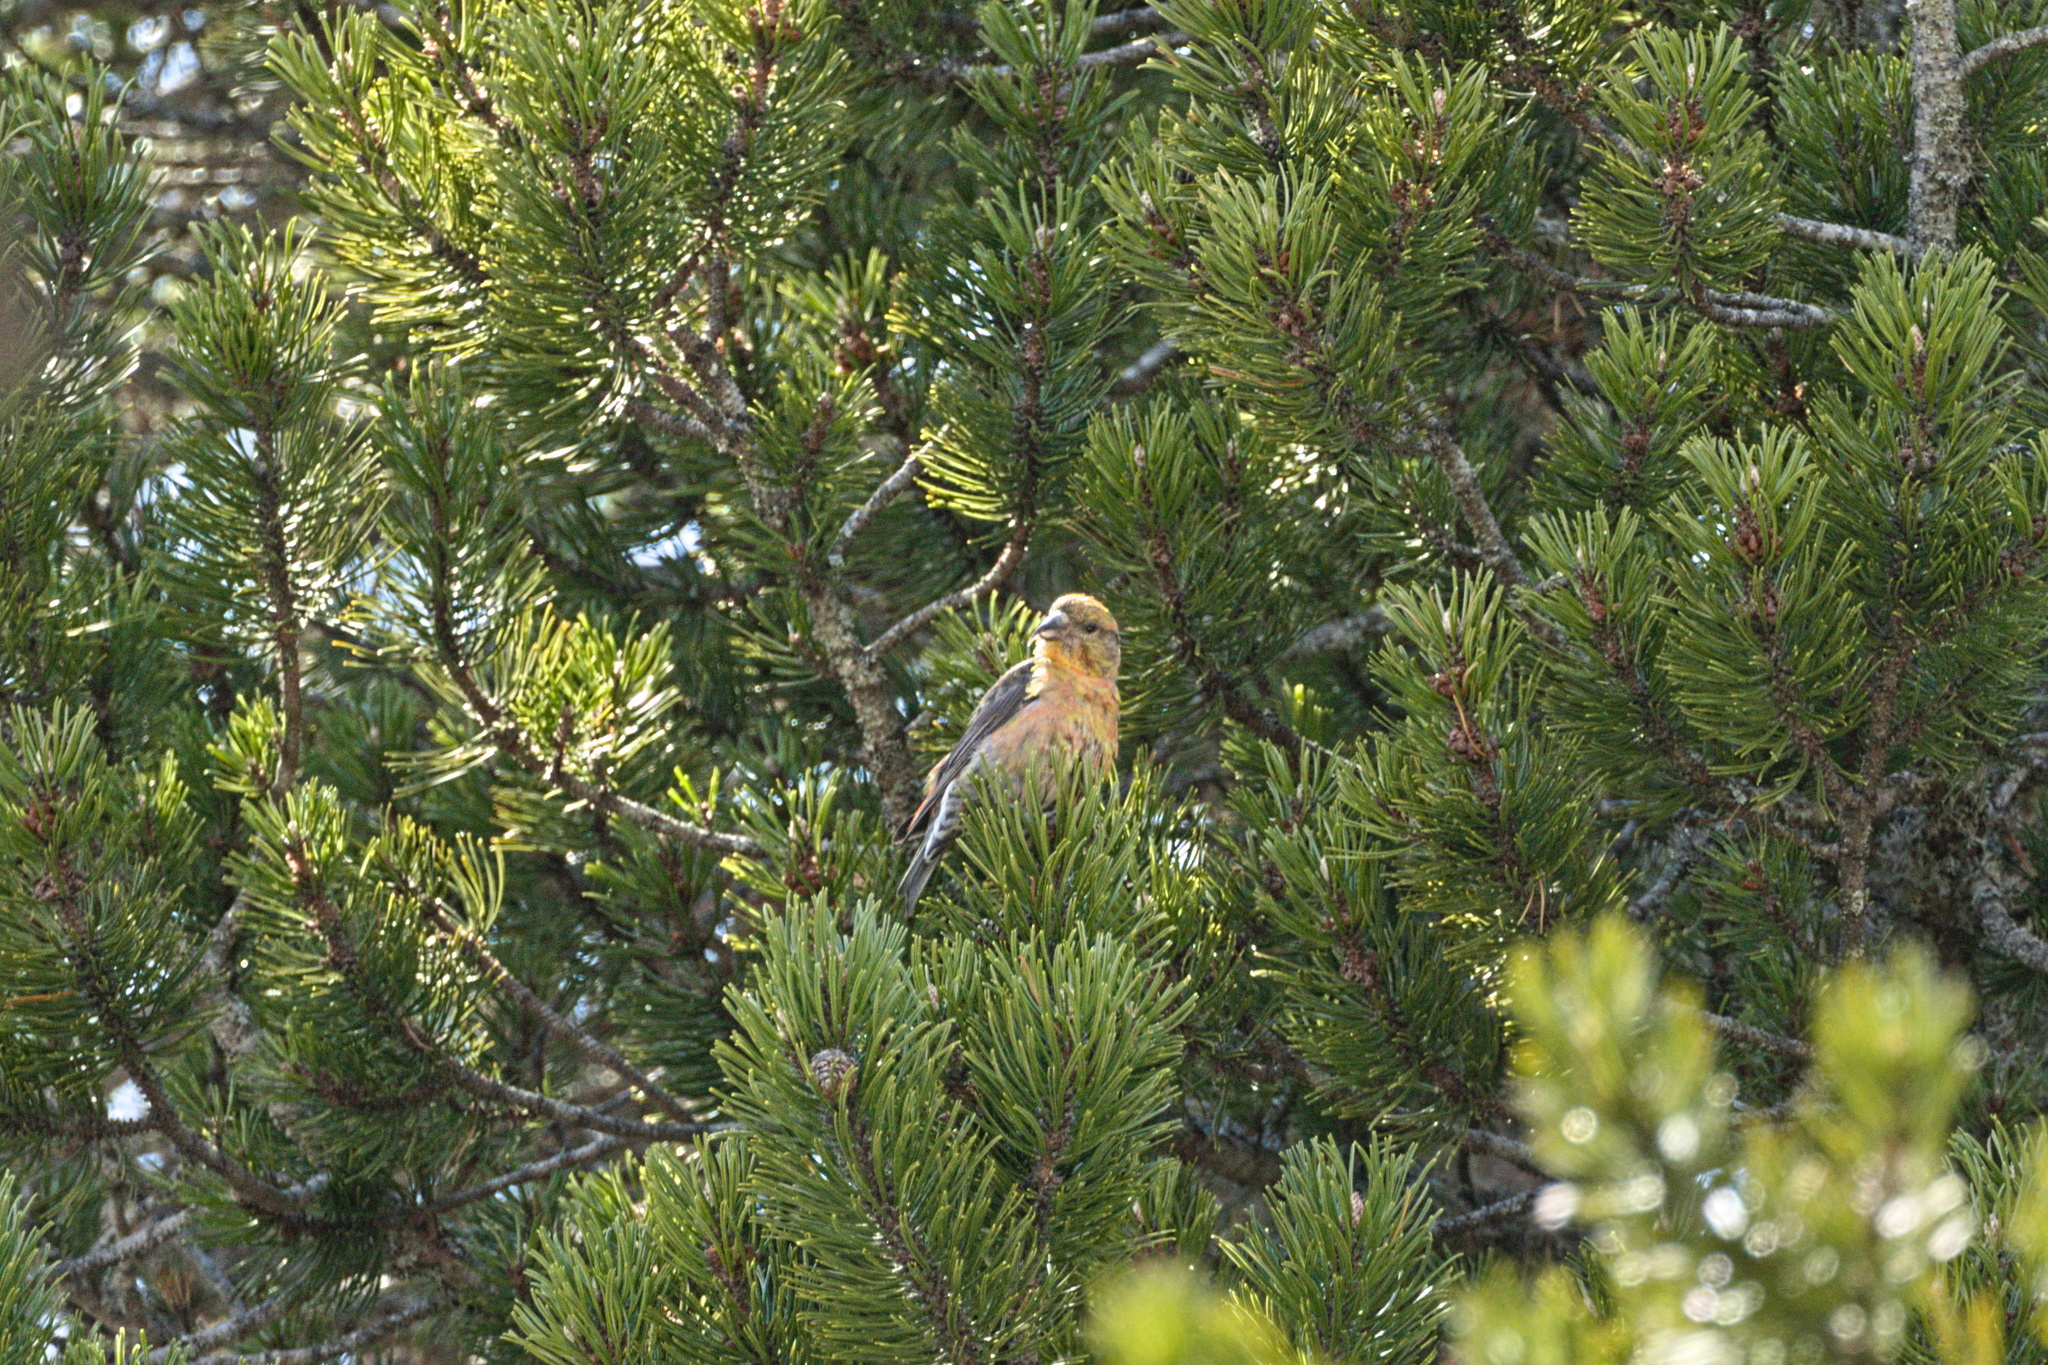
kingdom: Animalia
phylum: Chordata
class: Aves
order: Passeriformes
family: Fringillidae
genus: Loxia
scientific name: Loxia curvirostra
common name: Red crossbill
